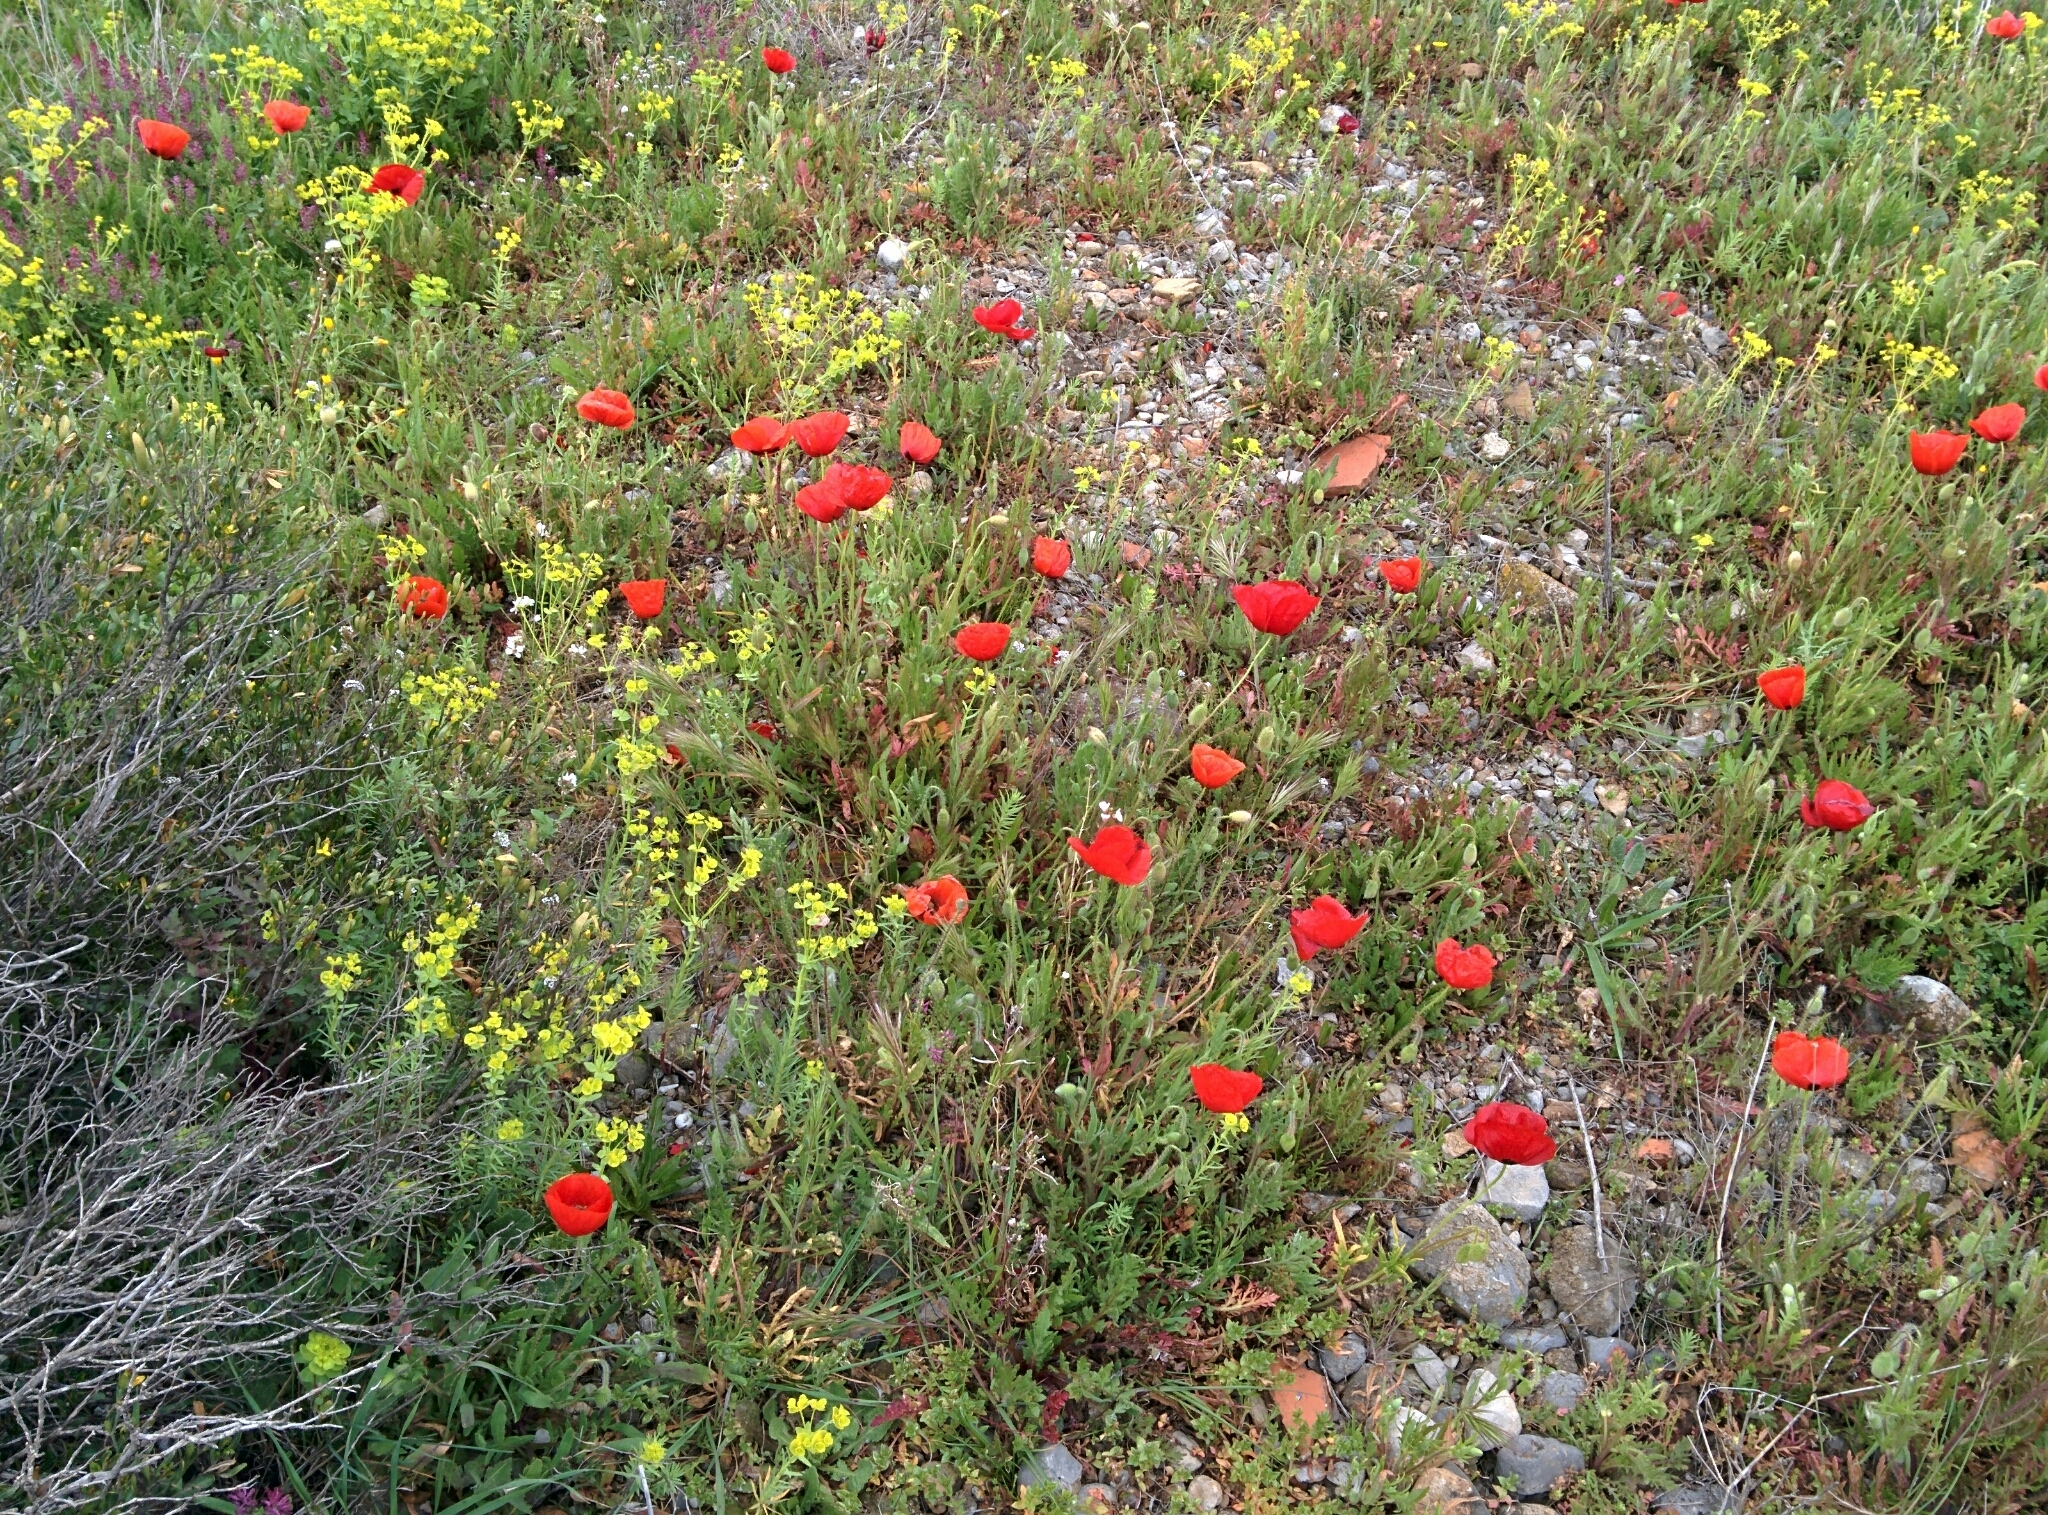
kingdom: Plantae
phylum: Tracheophyta
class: Magnoliopsida
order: Ranunculales
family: Papaveraceae
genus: Papaver
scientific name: Papaver
